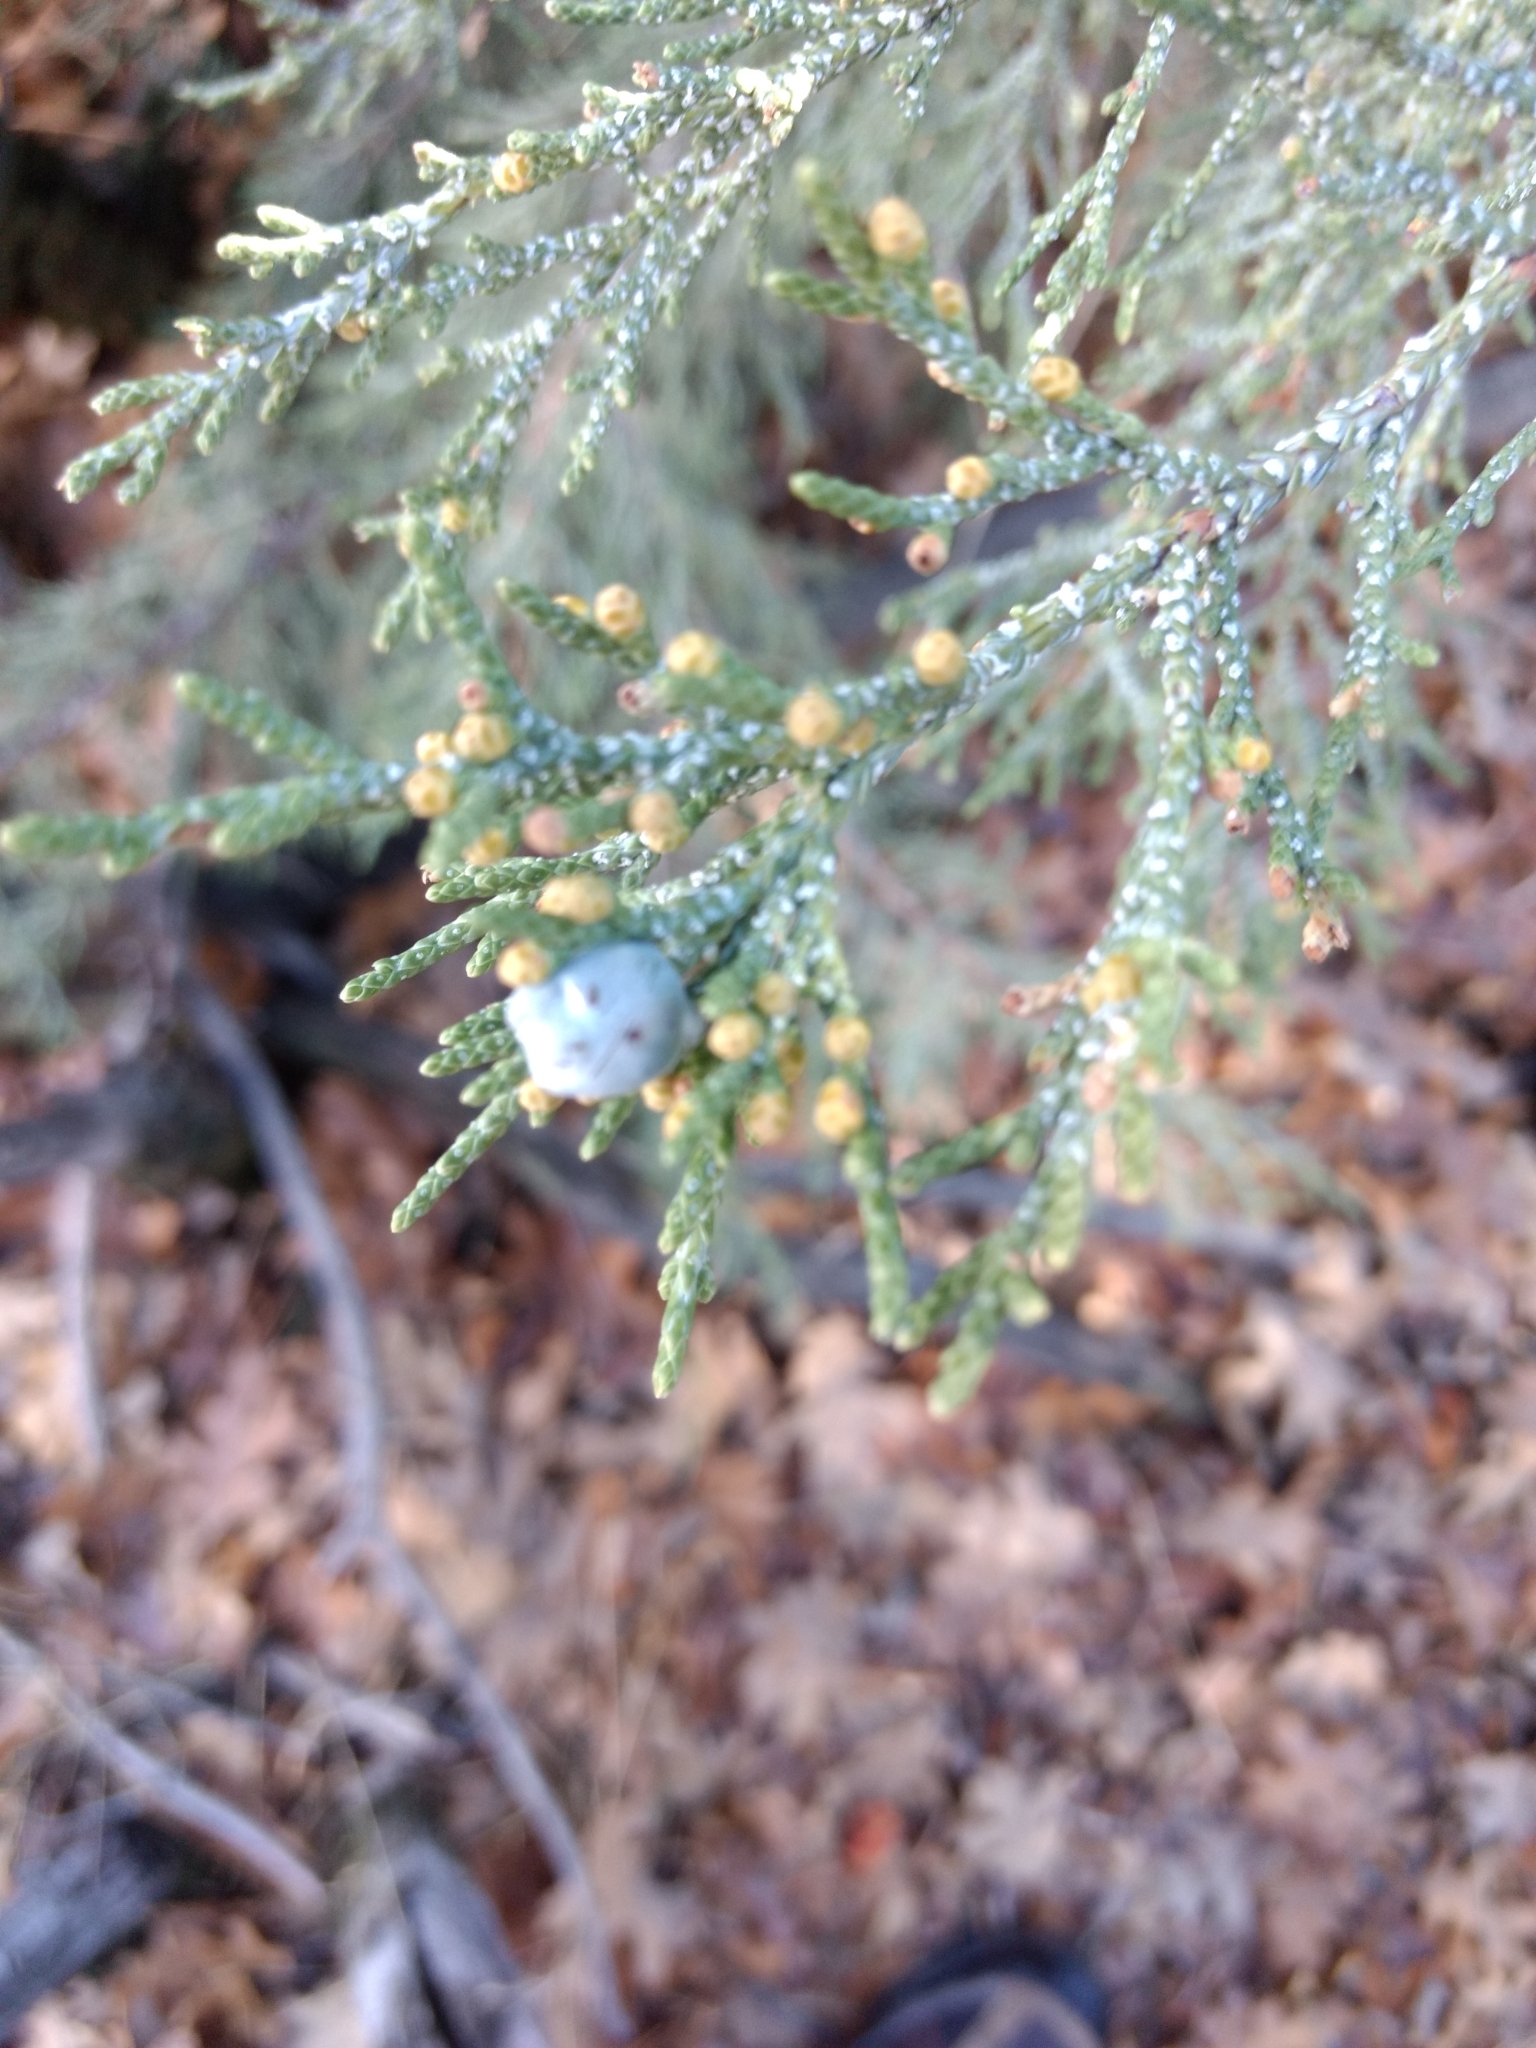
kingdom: Plantae
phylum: Tracheophyta
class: Pinopsida
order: Pinales
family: Cupressaceae
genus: Juniperus
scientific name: Juniperus occidentalis
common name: Western juniper
